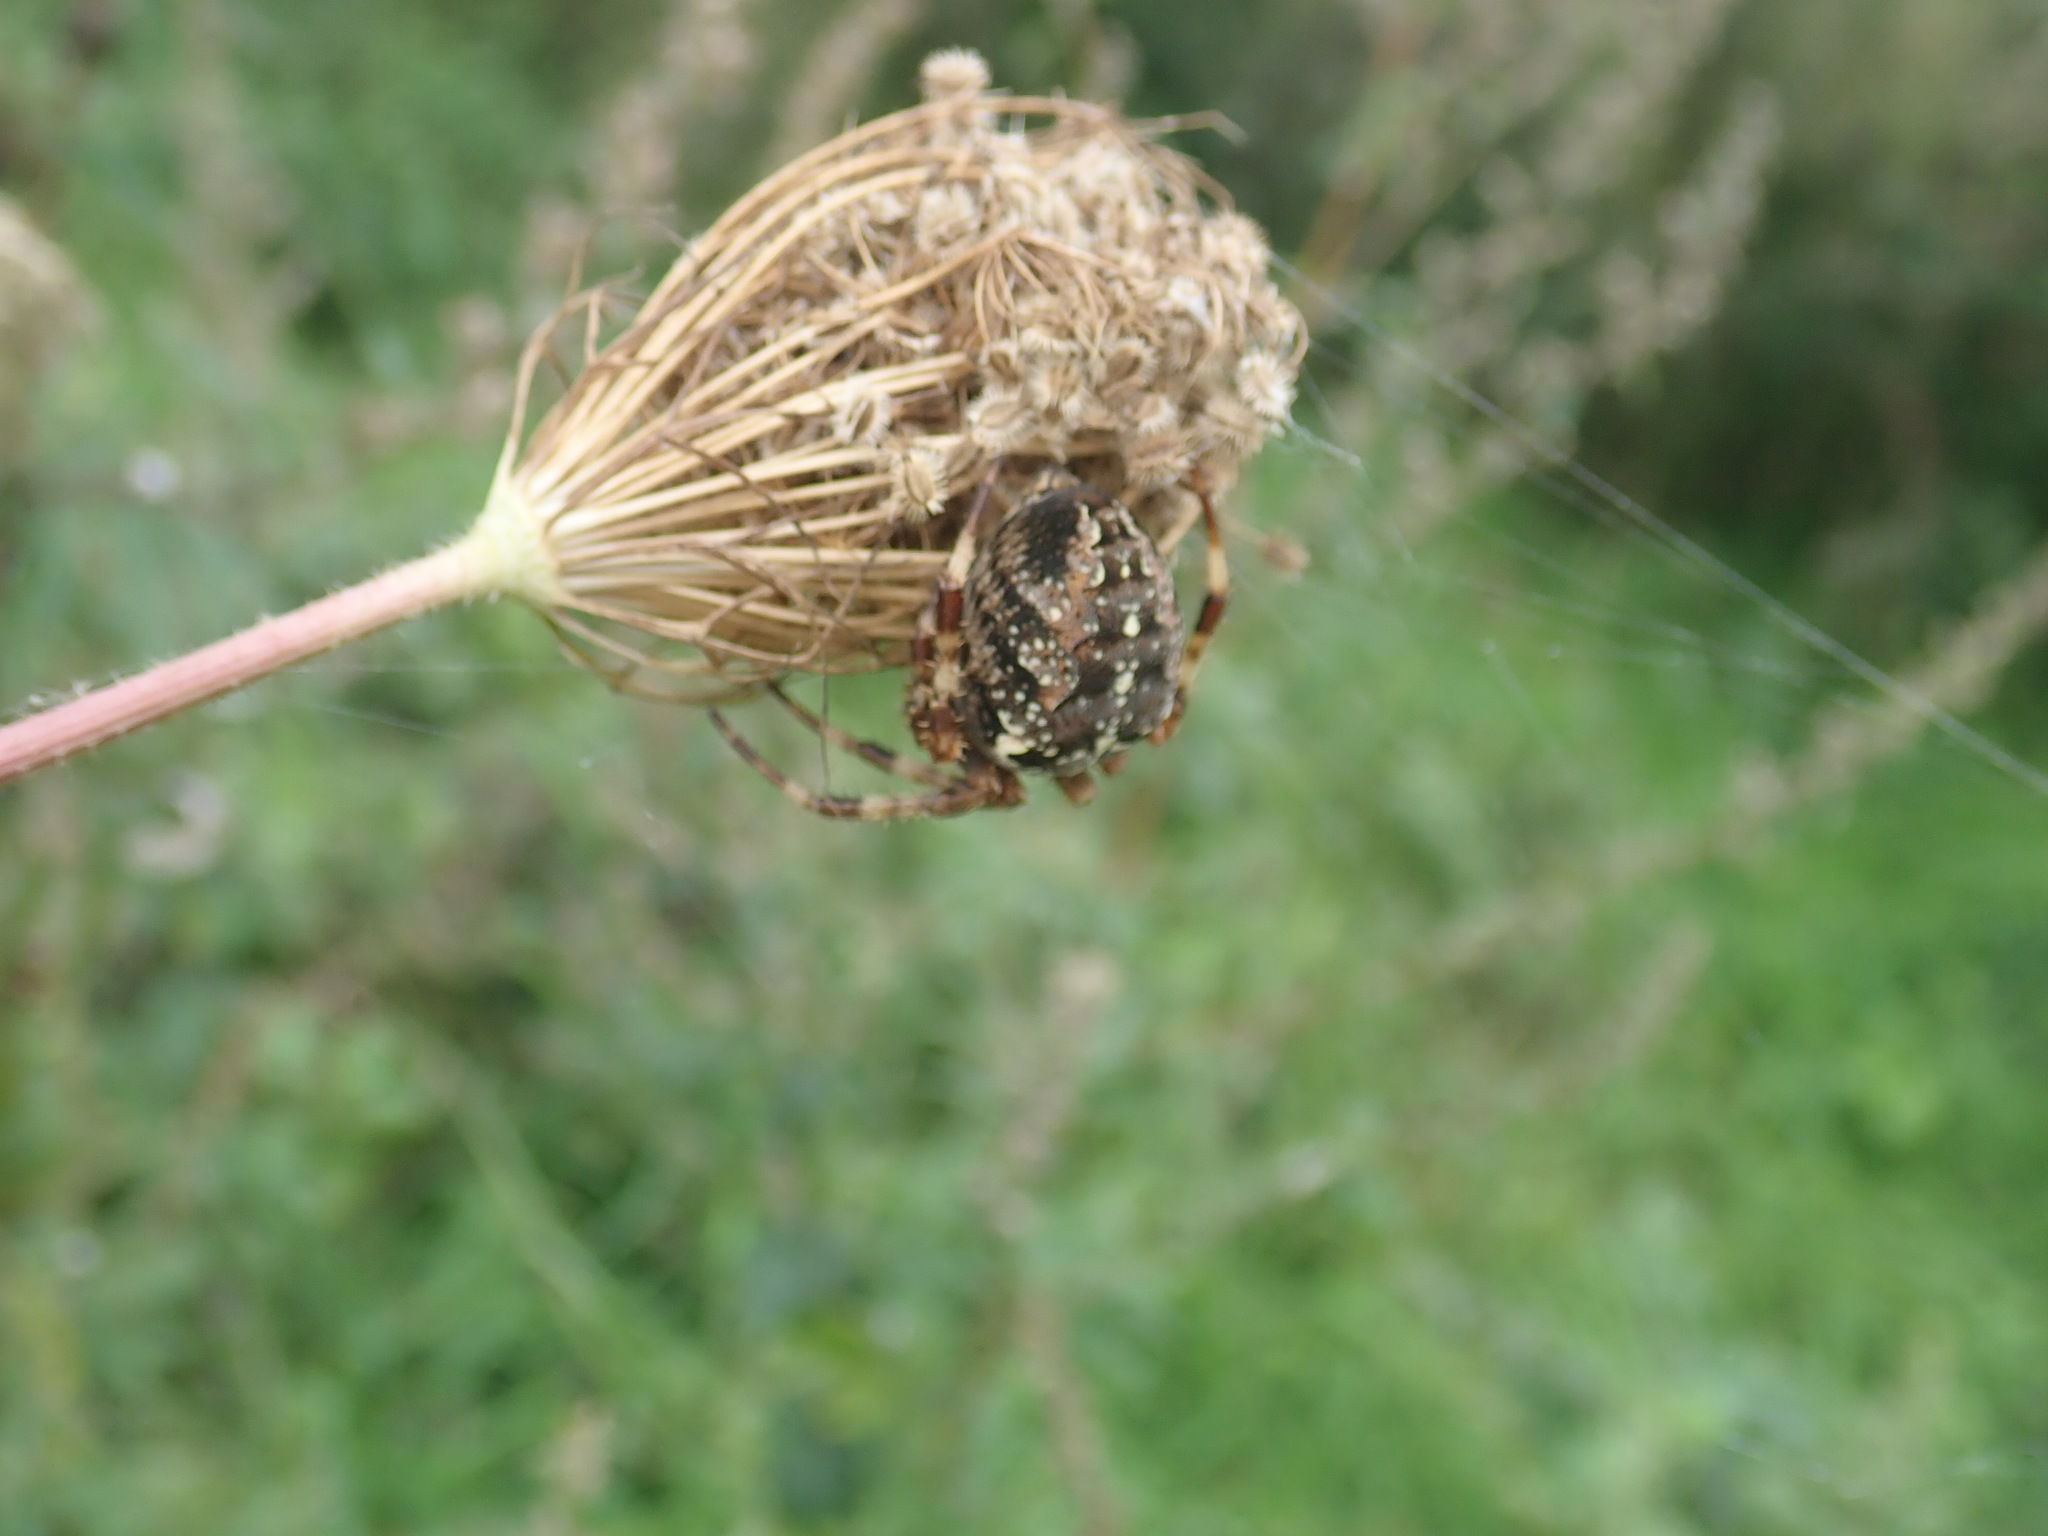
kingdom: Animalia
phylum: Arthropoda
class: Arachnida
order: Araneae
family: Araneidae
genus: Araneus
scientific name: Araneus diadematus
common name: Cross orbweaver
